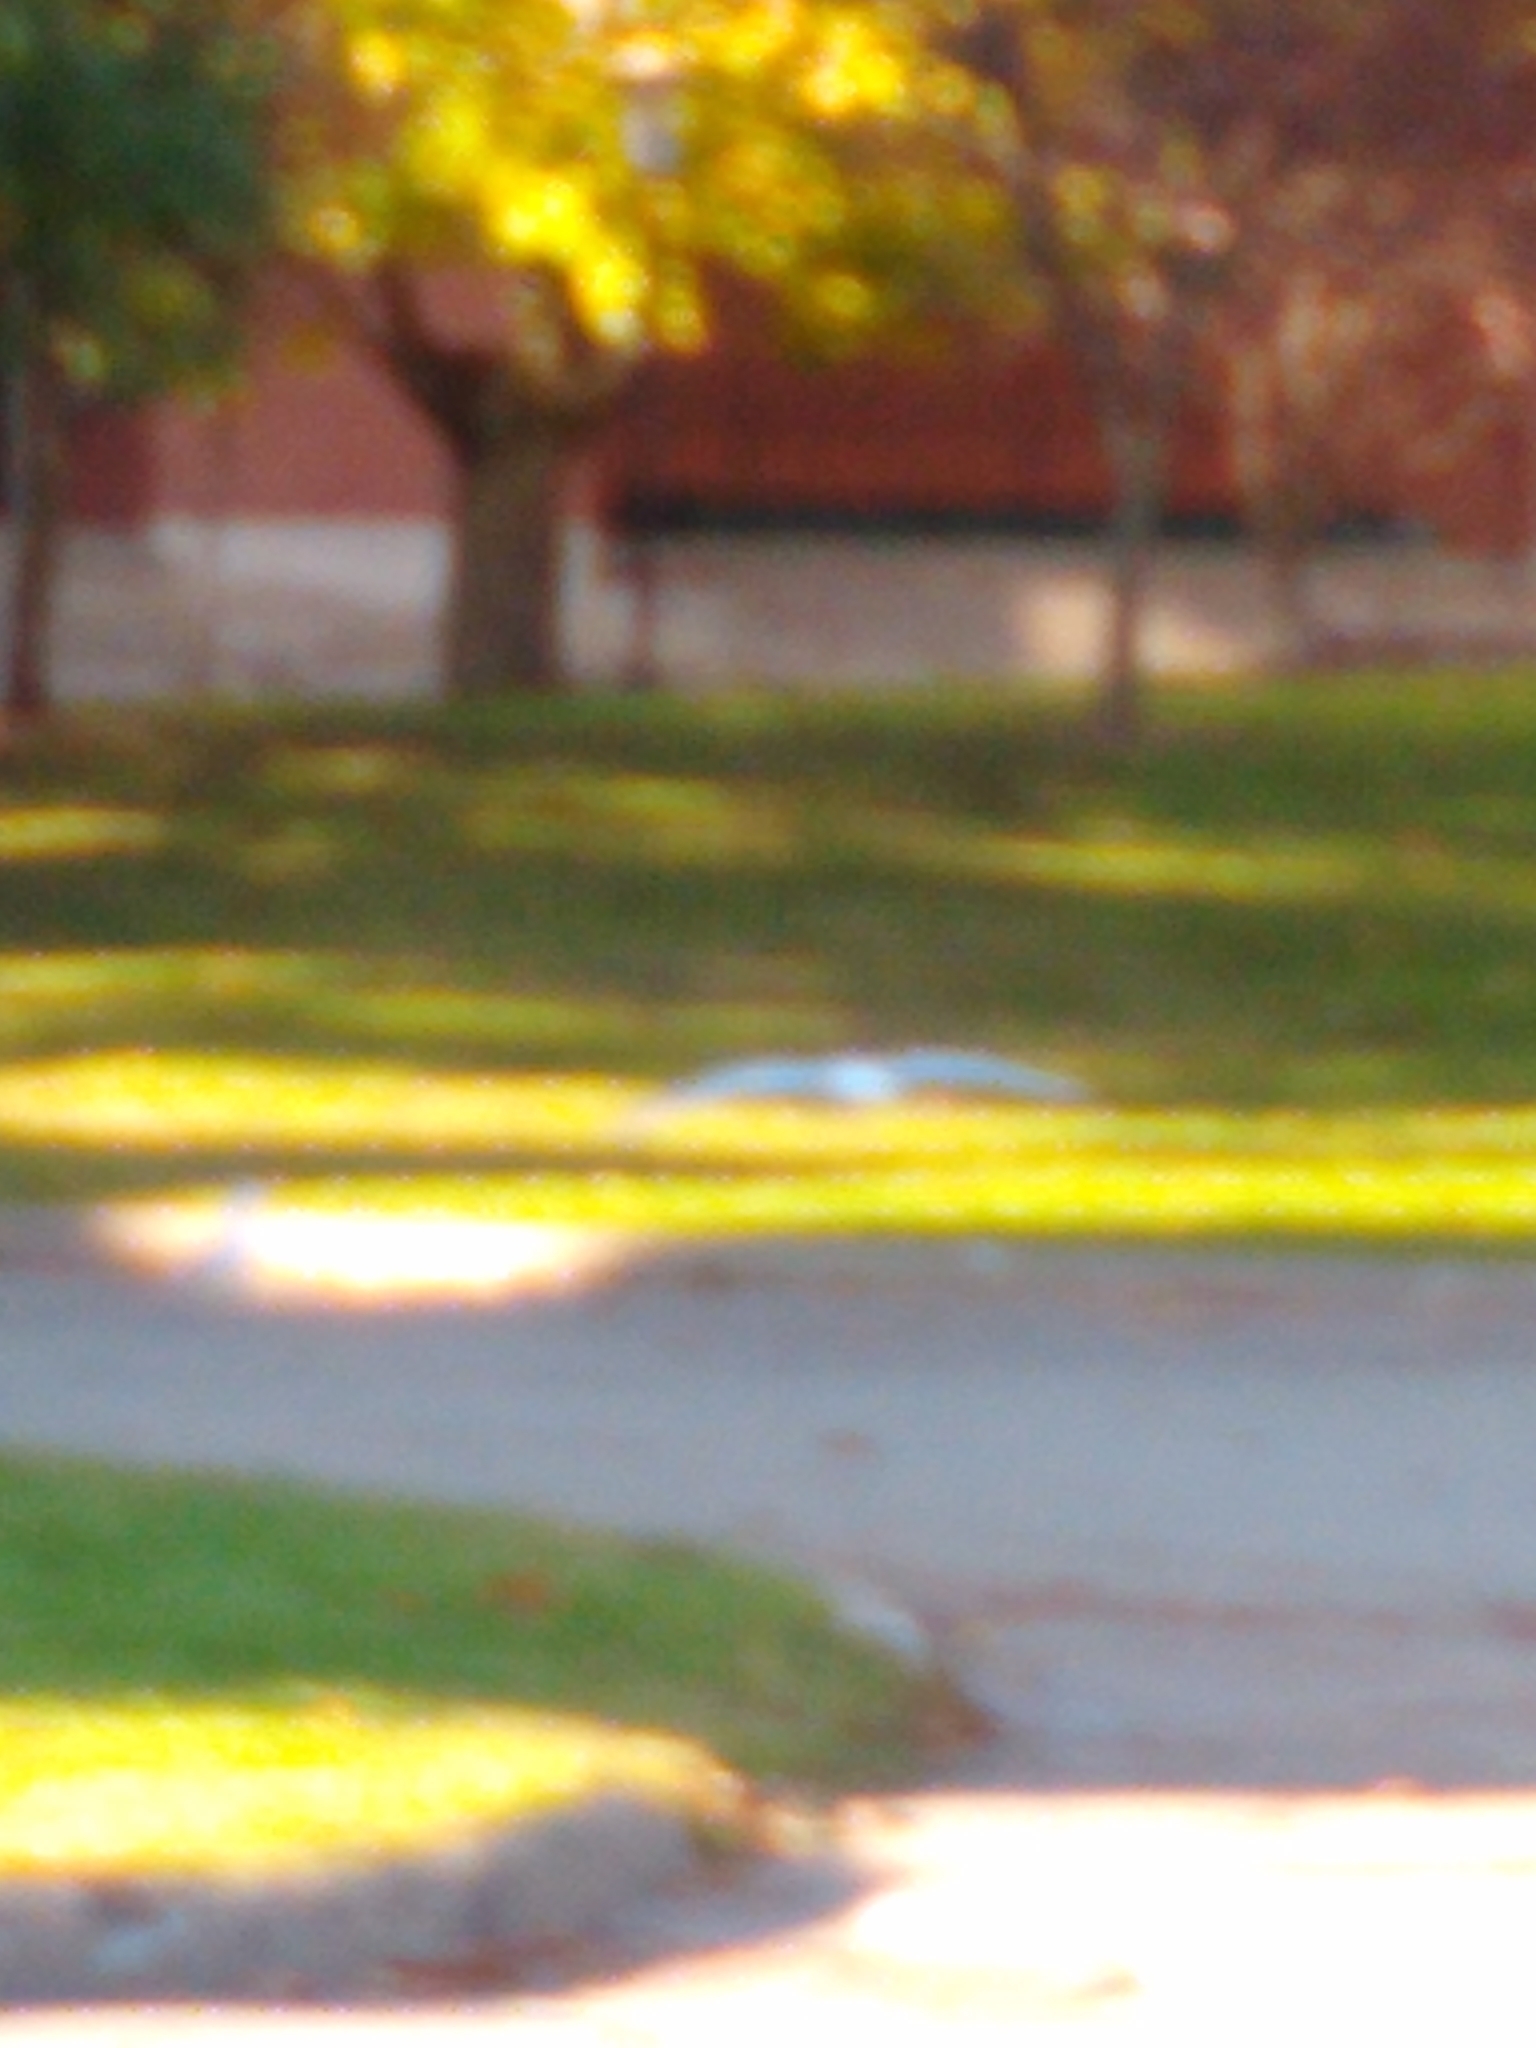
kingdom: Animalia
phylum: Chordata
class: Aves
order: Charadriiformes
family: Laridae
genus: Larus
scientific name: Larus delawarensis
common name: Ring-billed gull
